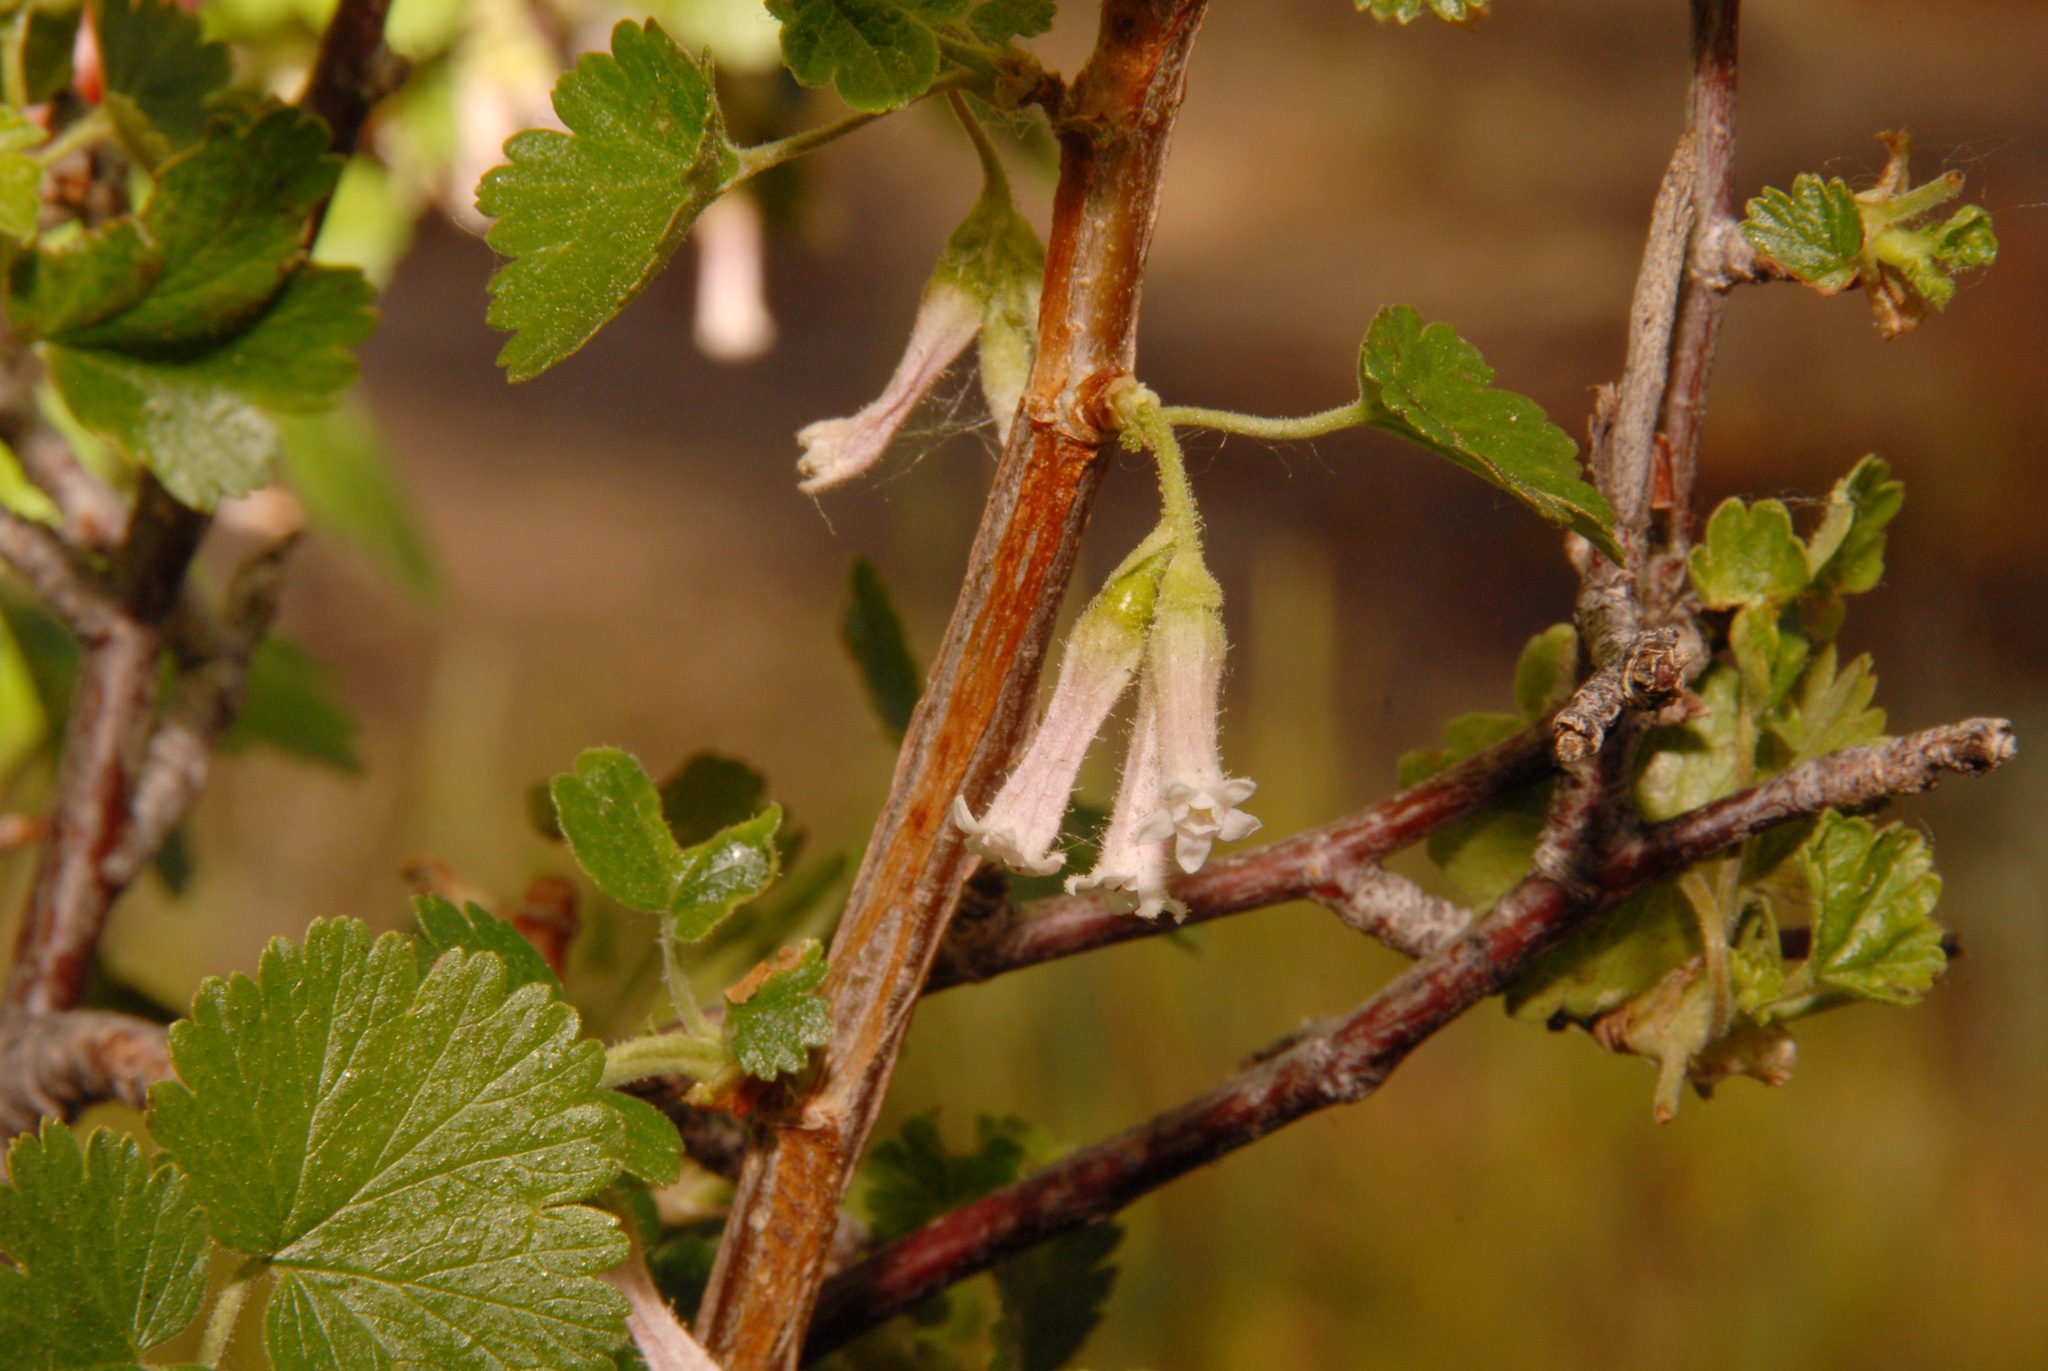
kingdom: Plantae
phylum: Tracheophyta
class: Magnoliopsida
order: Saxifragales
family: Grossulariaceae
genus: Ribes
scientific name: Ribes cereum
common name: Wax currant
